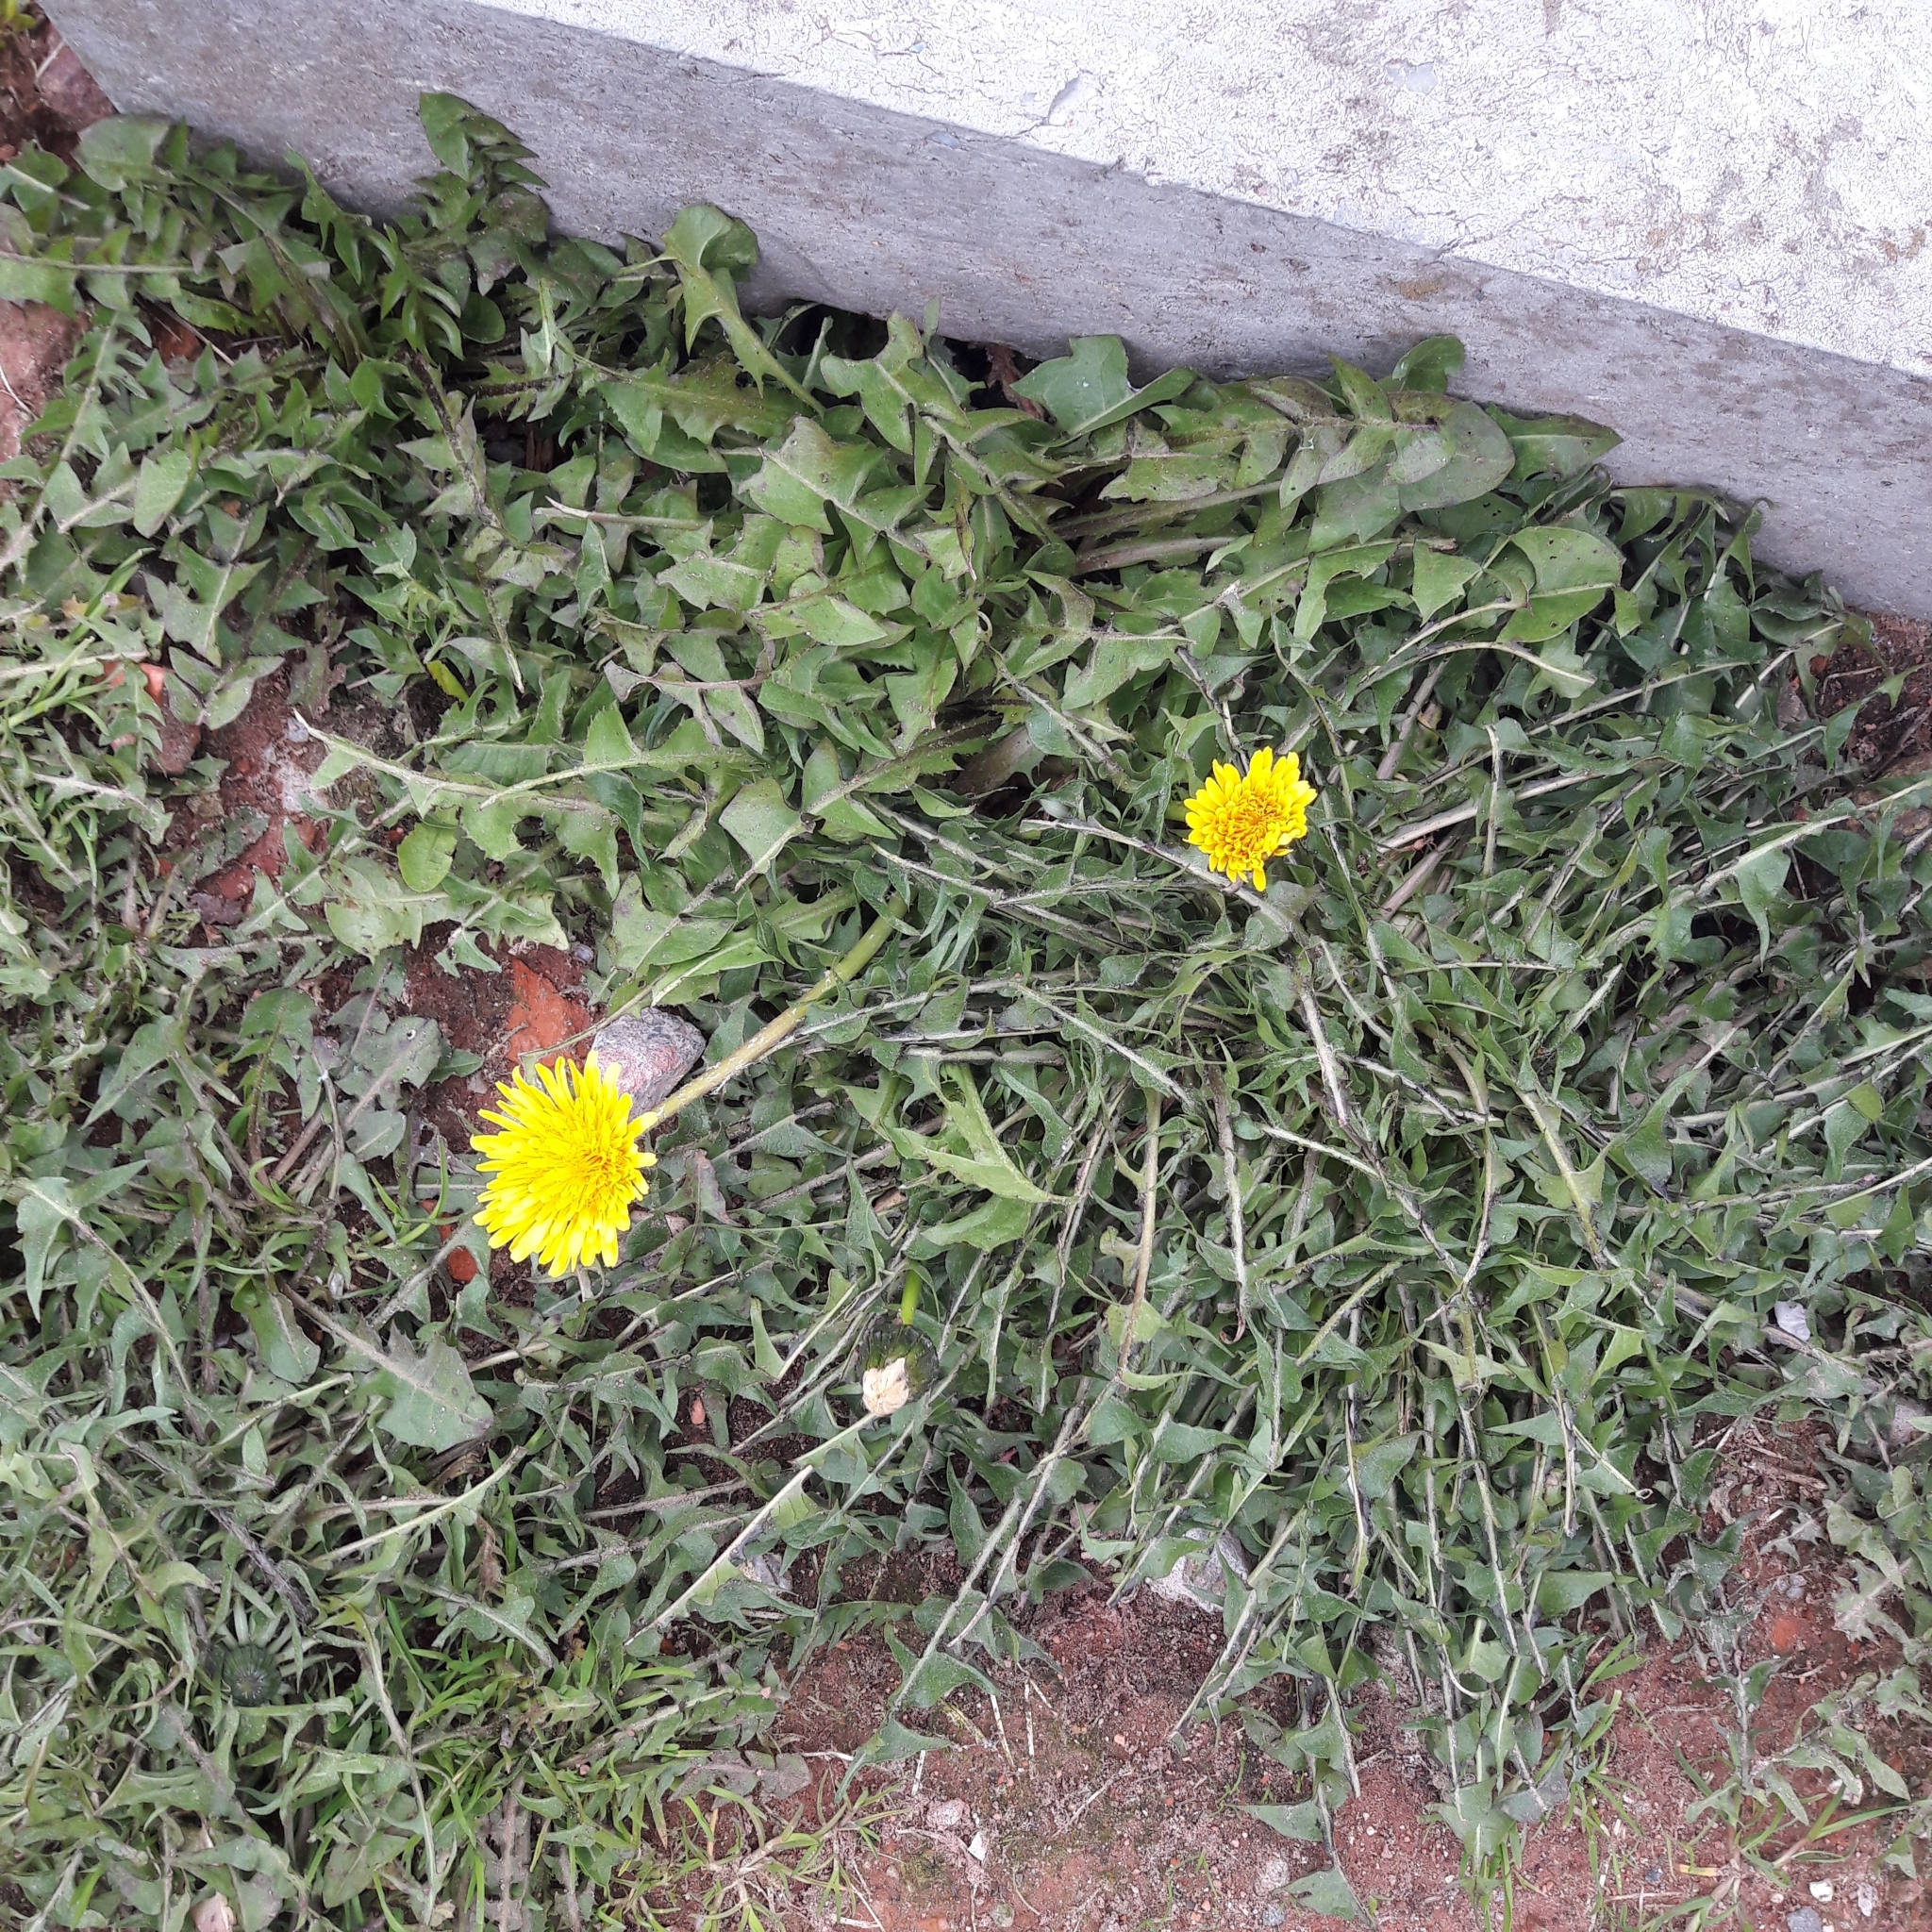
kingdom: Plantae
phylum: Tracheophyta
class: Magnoliopsida
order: Asterales
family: Asteraceae
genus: Taraxacum
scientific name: Taraxacum officinale
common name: Common dandelion
